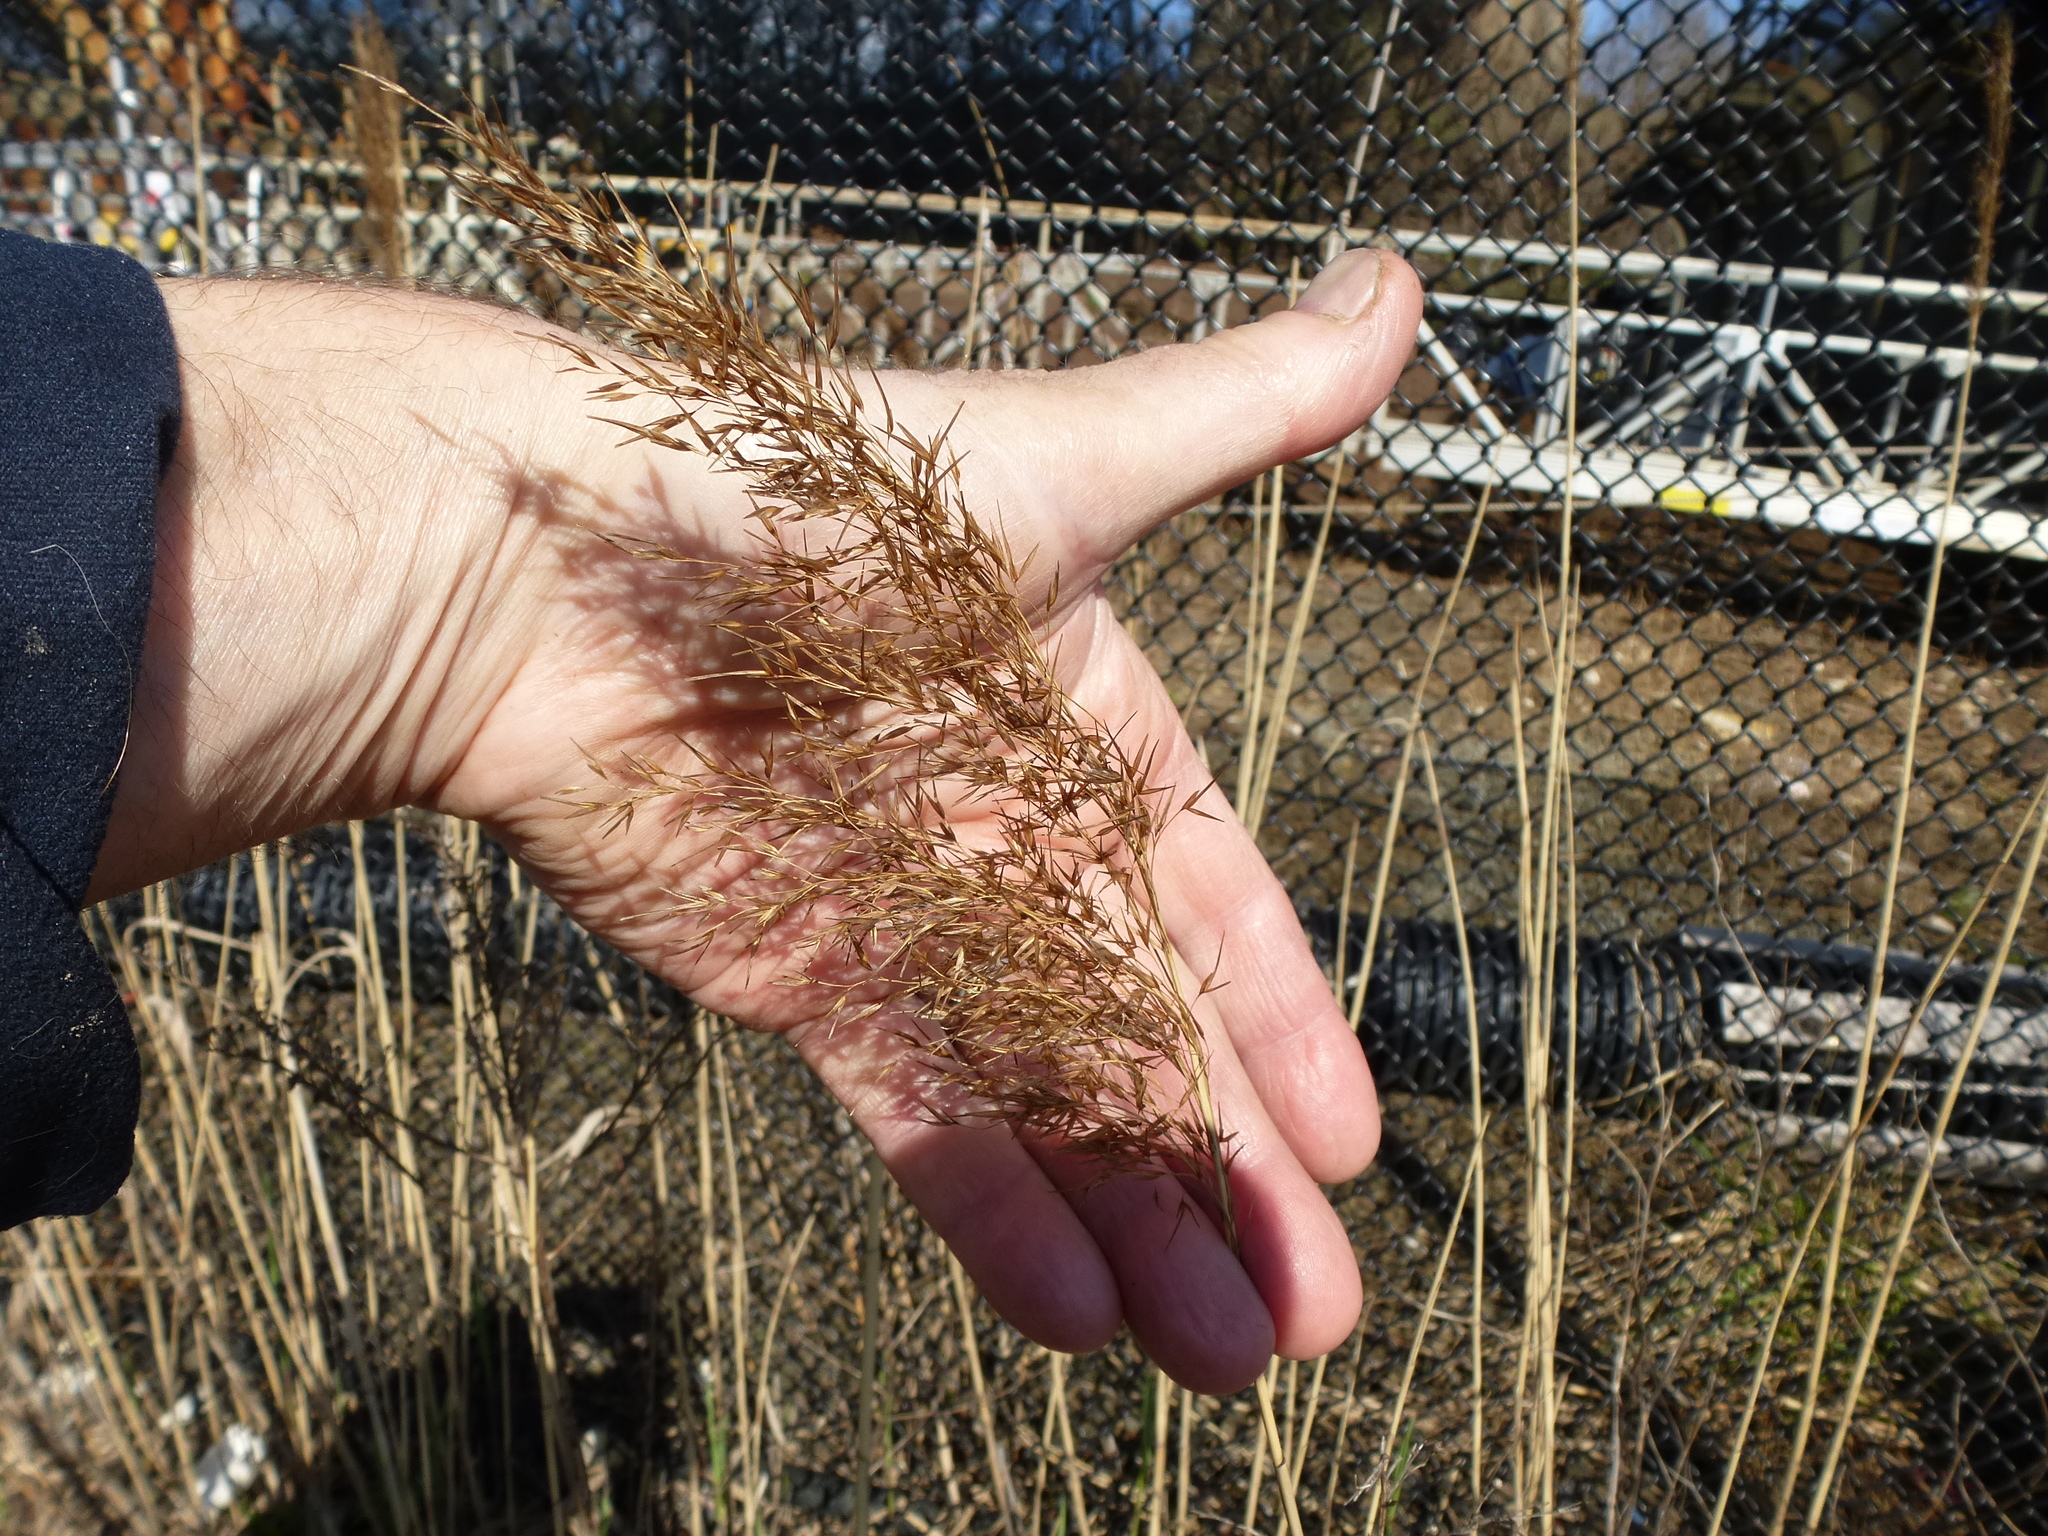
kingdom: Plantae
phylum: Tracheophyta
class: Liliopsida
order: Poales
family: Poaceae
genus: Phragmites
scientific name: Phragmites australis
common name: Common reed
